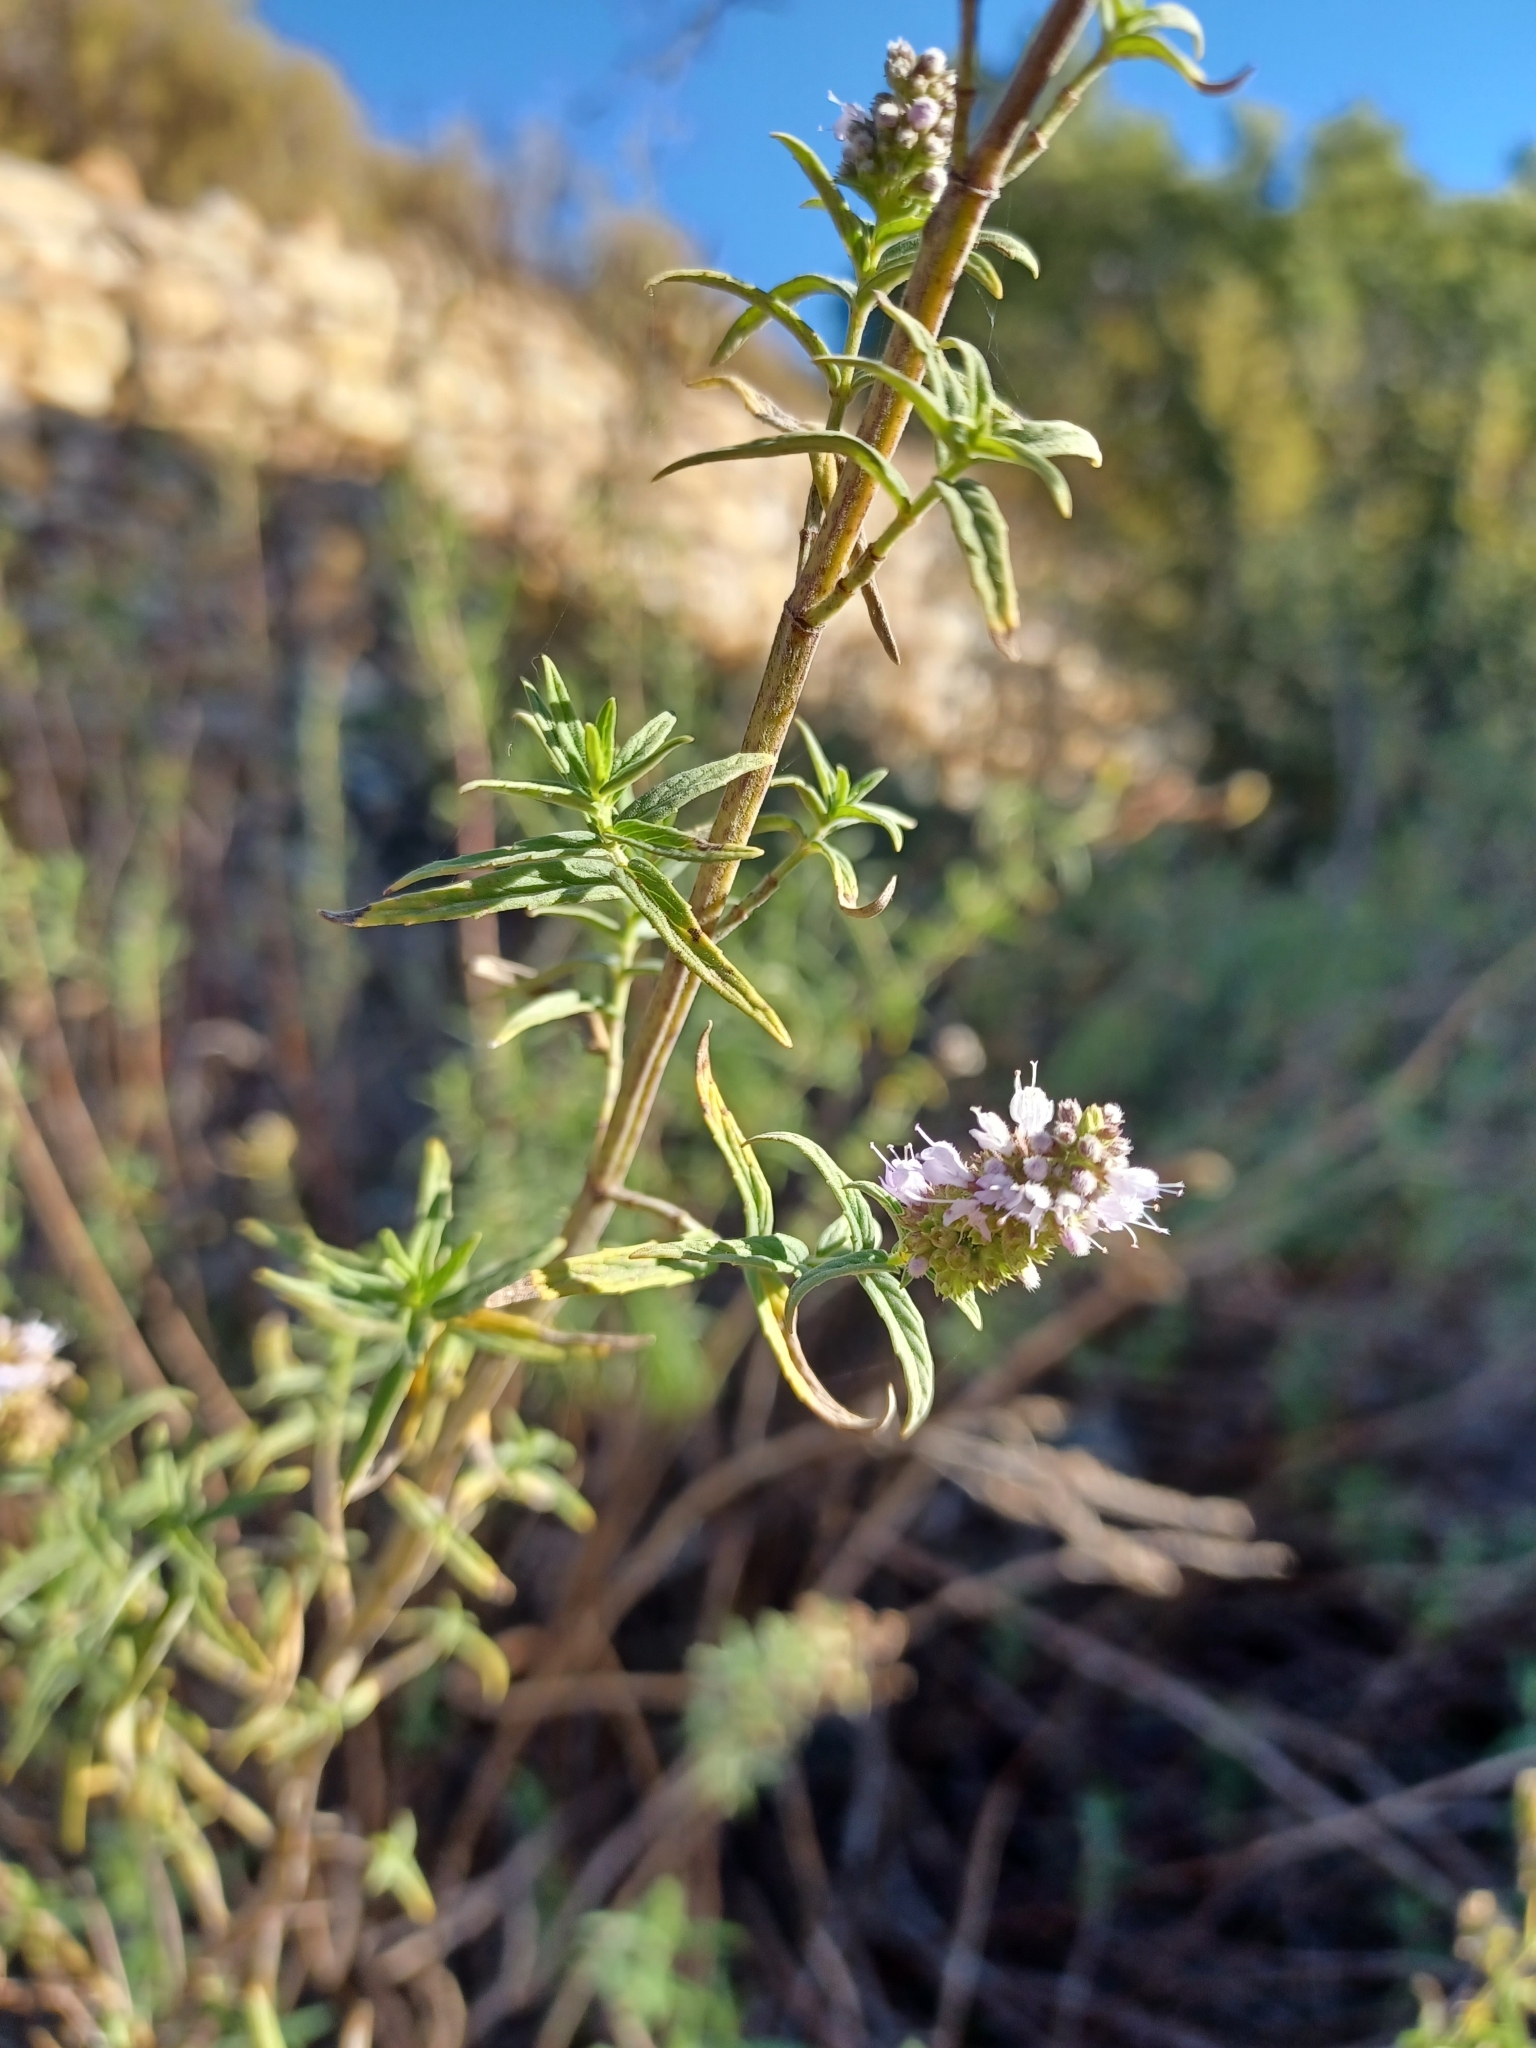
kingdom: Plantae
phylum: Tracheophyta
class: Magnoliopsida
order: Lamiales
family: Lamiaceae
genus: Mentha
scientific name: Mentha longifolia
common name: Horse mint
